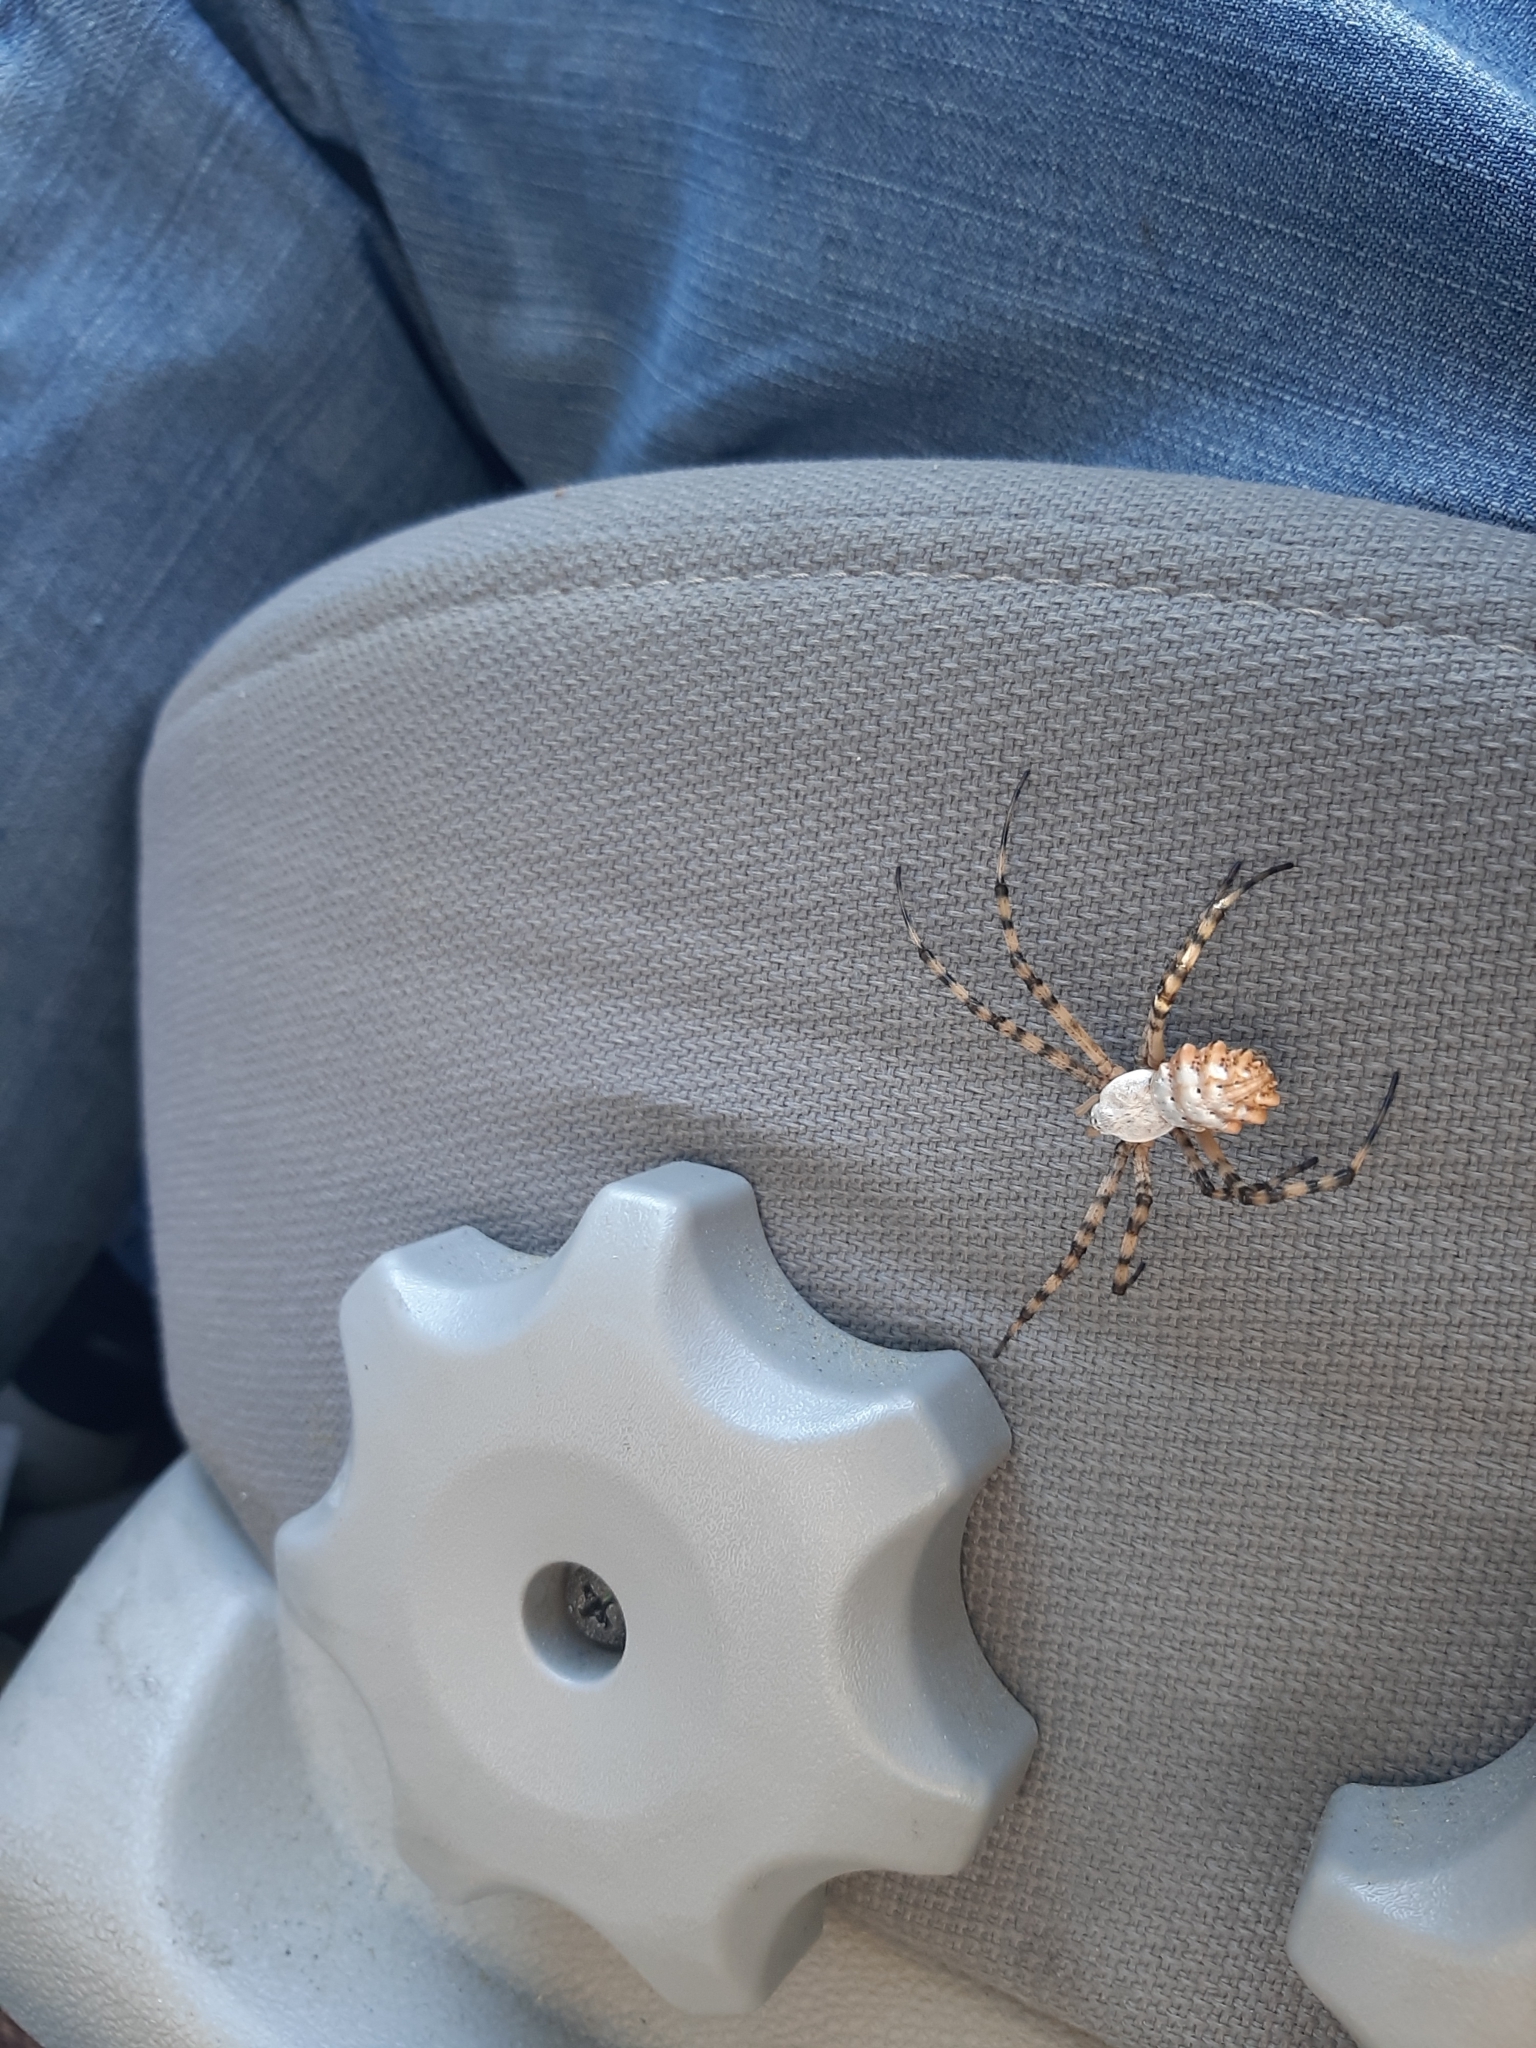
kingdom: Animalia
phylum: Arthropoda
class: Arachnida
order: Araneae
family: Araneidae
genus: Argiope
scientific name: Argiope lobata
